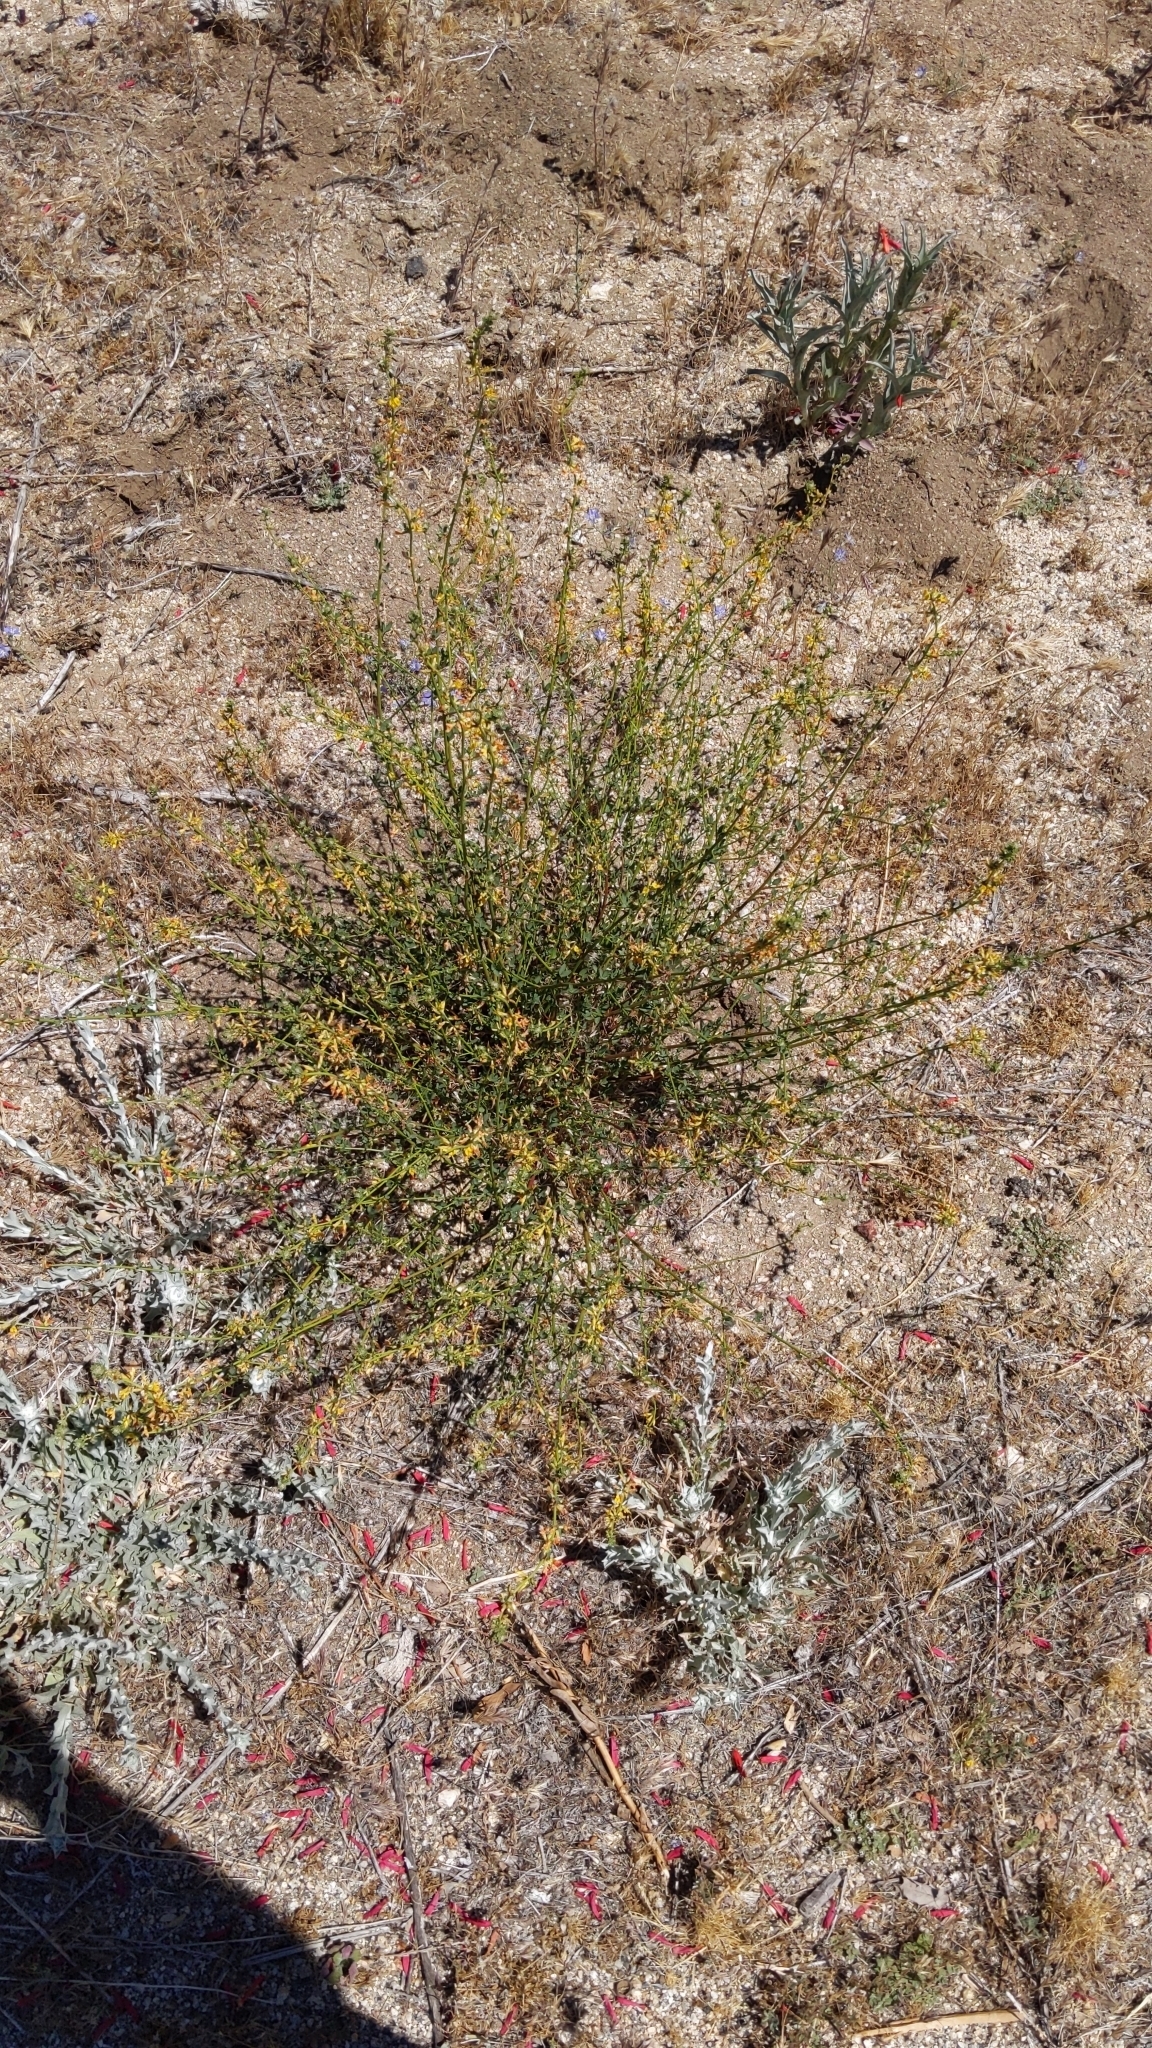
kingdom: Plantae
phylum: Tracheophyta
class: Magnoliopsida
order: Fabales
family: Fabaceae
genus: Acmispon
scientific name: Acmispon glaber
